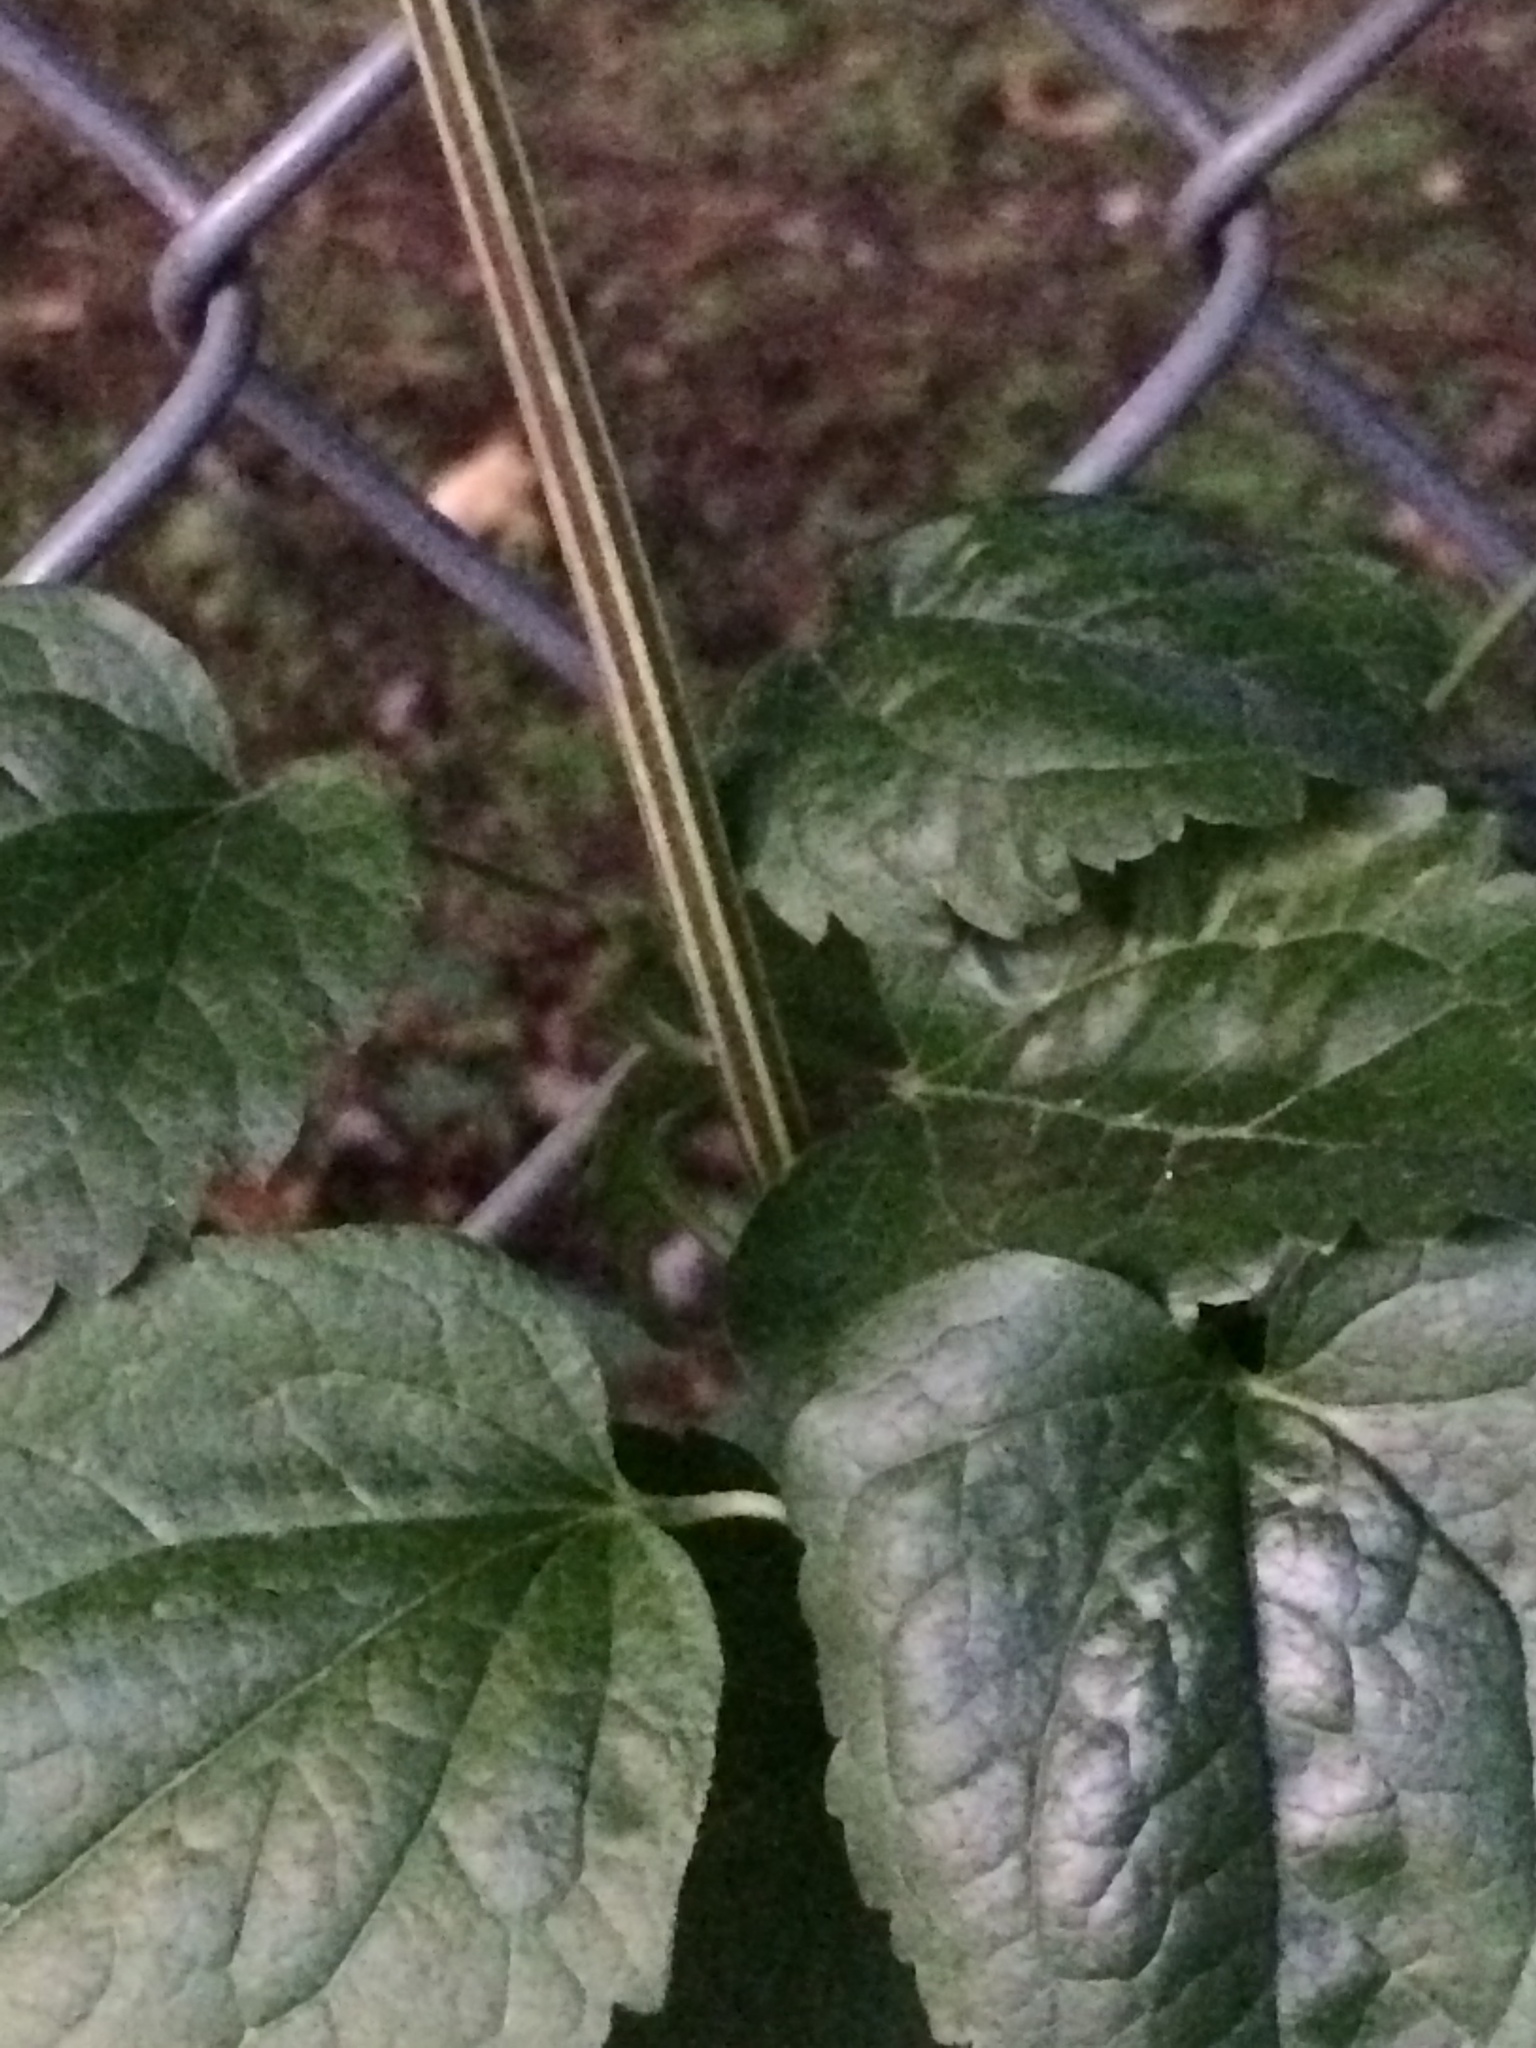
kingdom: Plantae
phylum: Tracheophyta
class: Magnoliopsida
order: Ranunculales
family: Ranunculaceae
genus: Clematis
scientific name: Clematis vitalba
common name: Evergreen clematis
